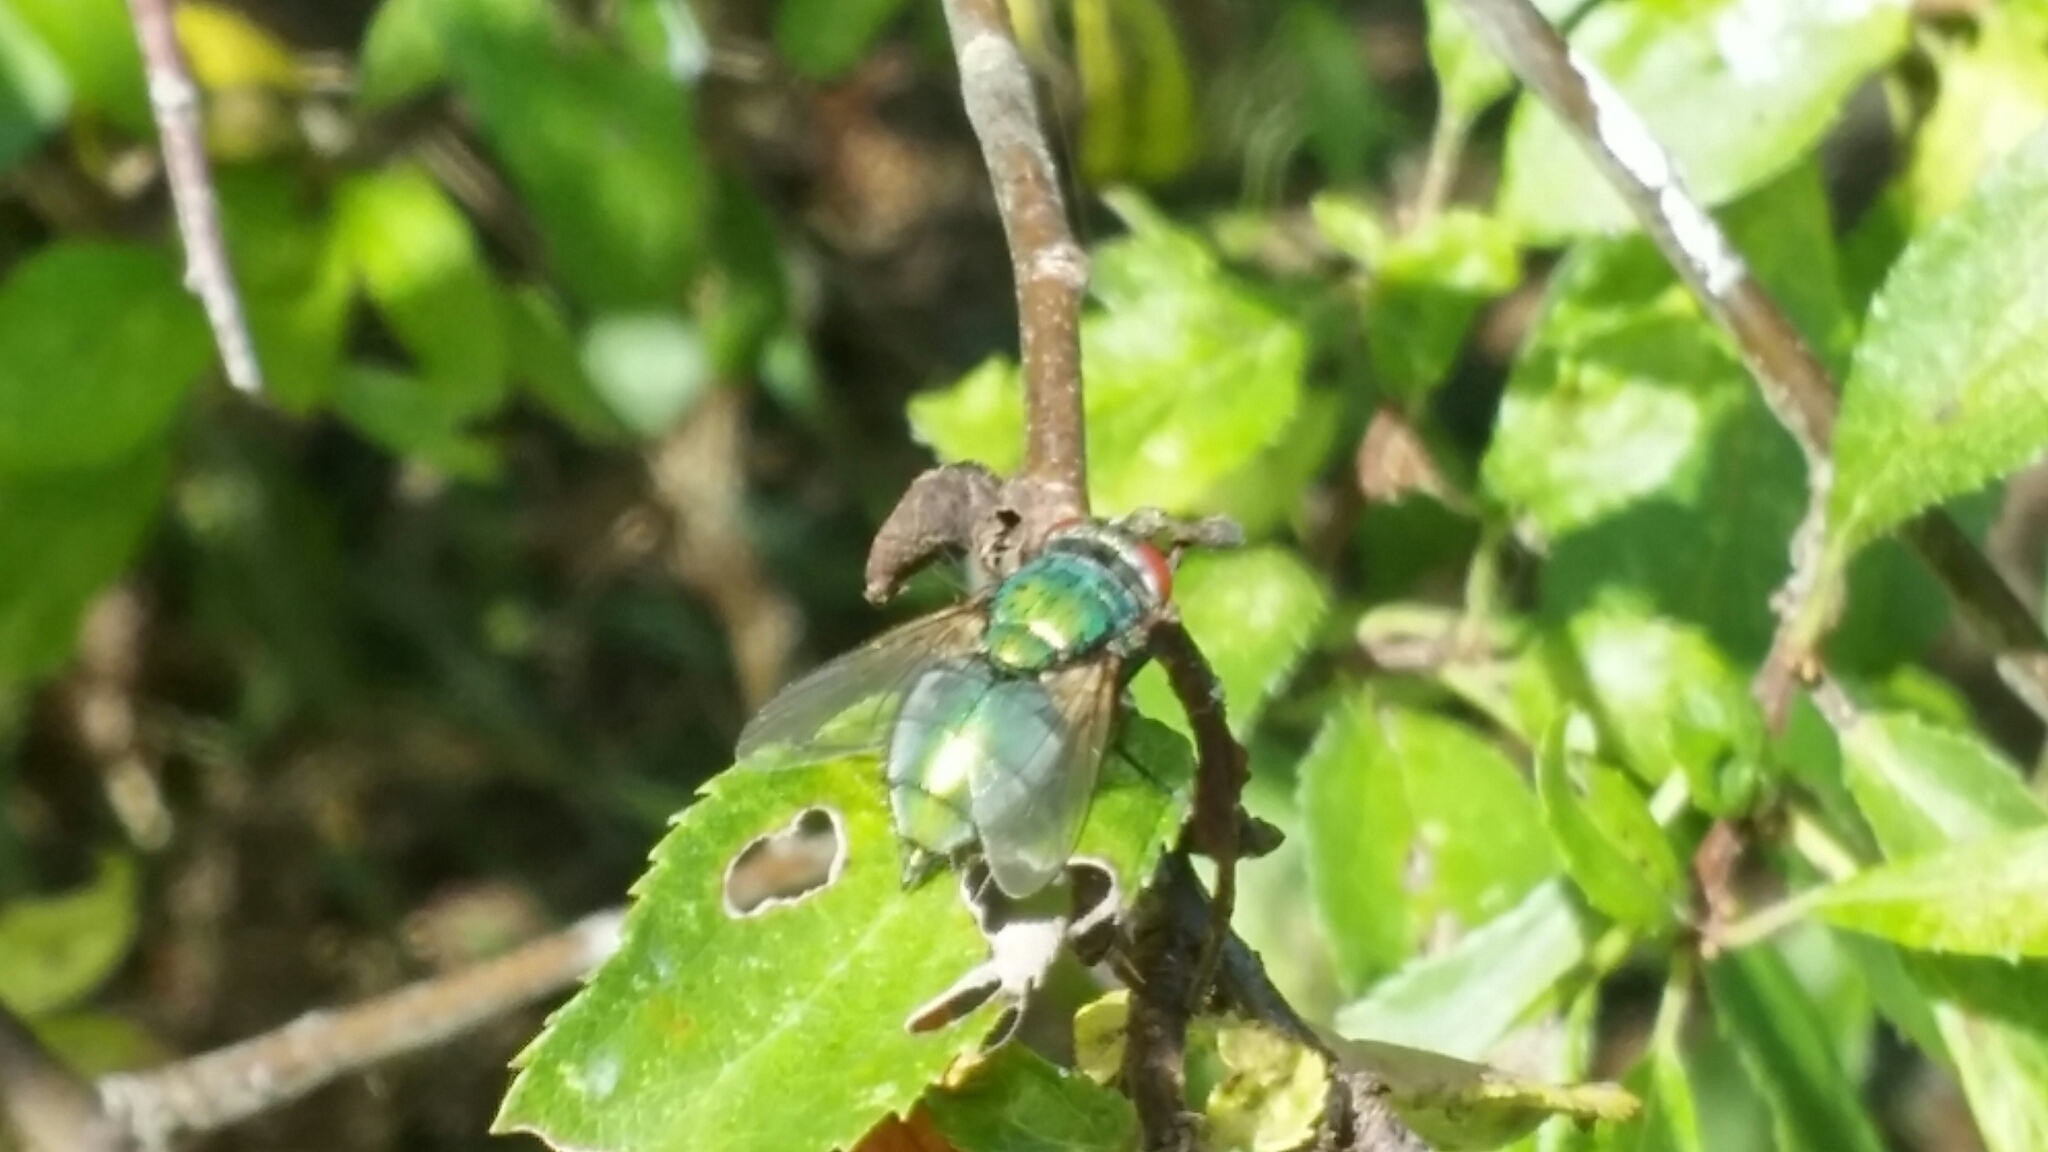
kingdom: Animalia
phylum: Arthropoda
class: Insecta
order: Diptera
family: Calliphoridae
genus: Lucilia
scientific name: Lucilia
